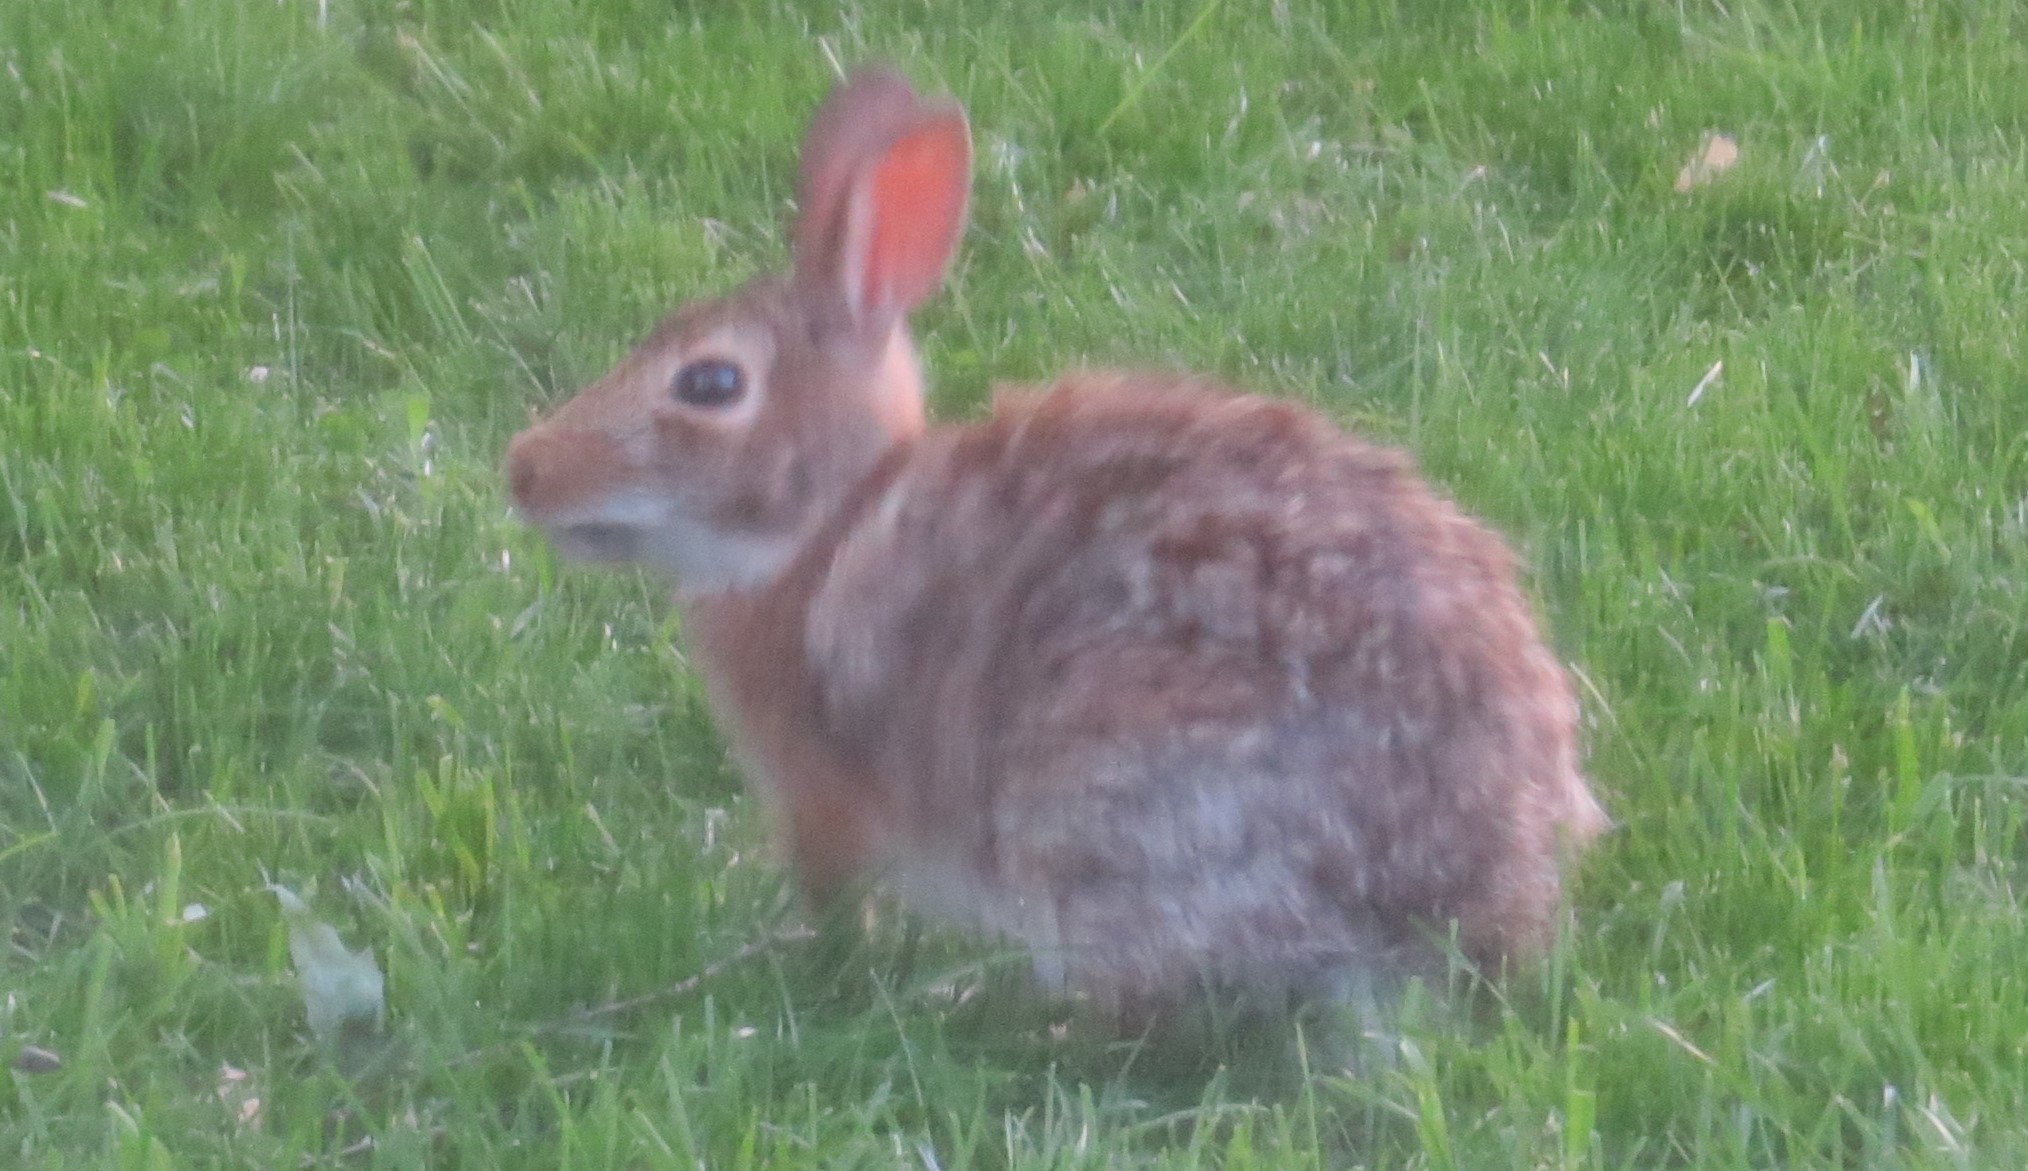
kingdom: Animalia
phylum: Chordata
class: Mammalia
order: Lagomorpha
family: Leporidae
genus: Sylvilagus
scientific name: Sylvilagus floridanus
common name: Eastern cottontail
